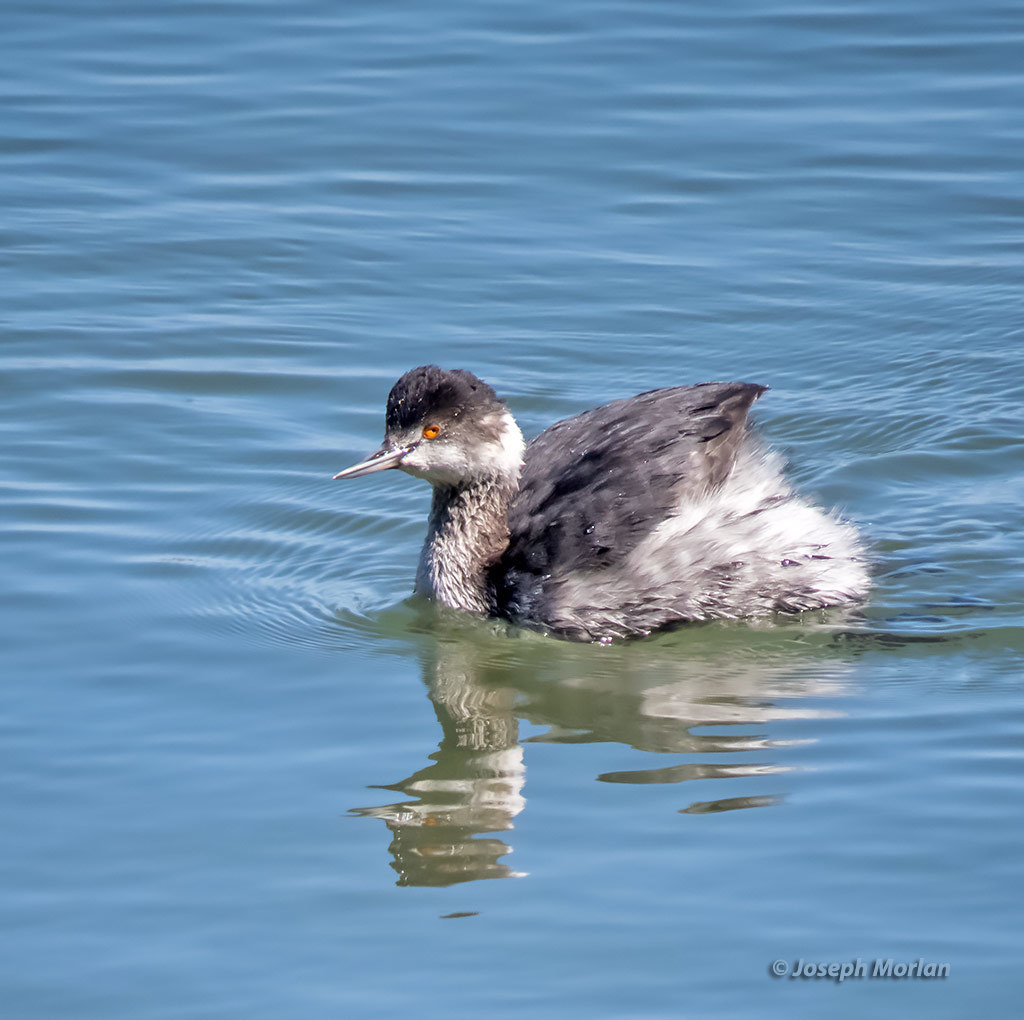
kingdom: Animalia
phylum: Chordata
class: Aves
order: Podicipediformes
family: Podicipedidae
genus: Podiceps
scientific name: Podiceps nigricollis
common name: Black-necked grebe
